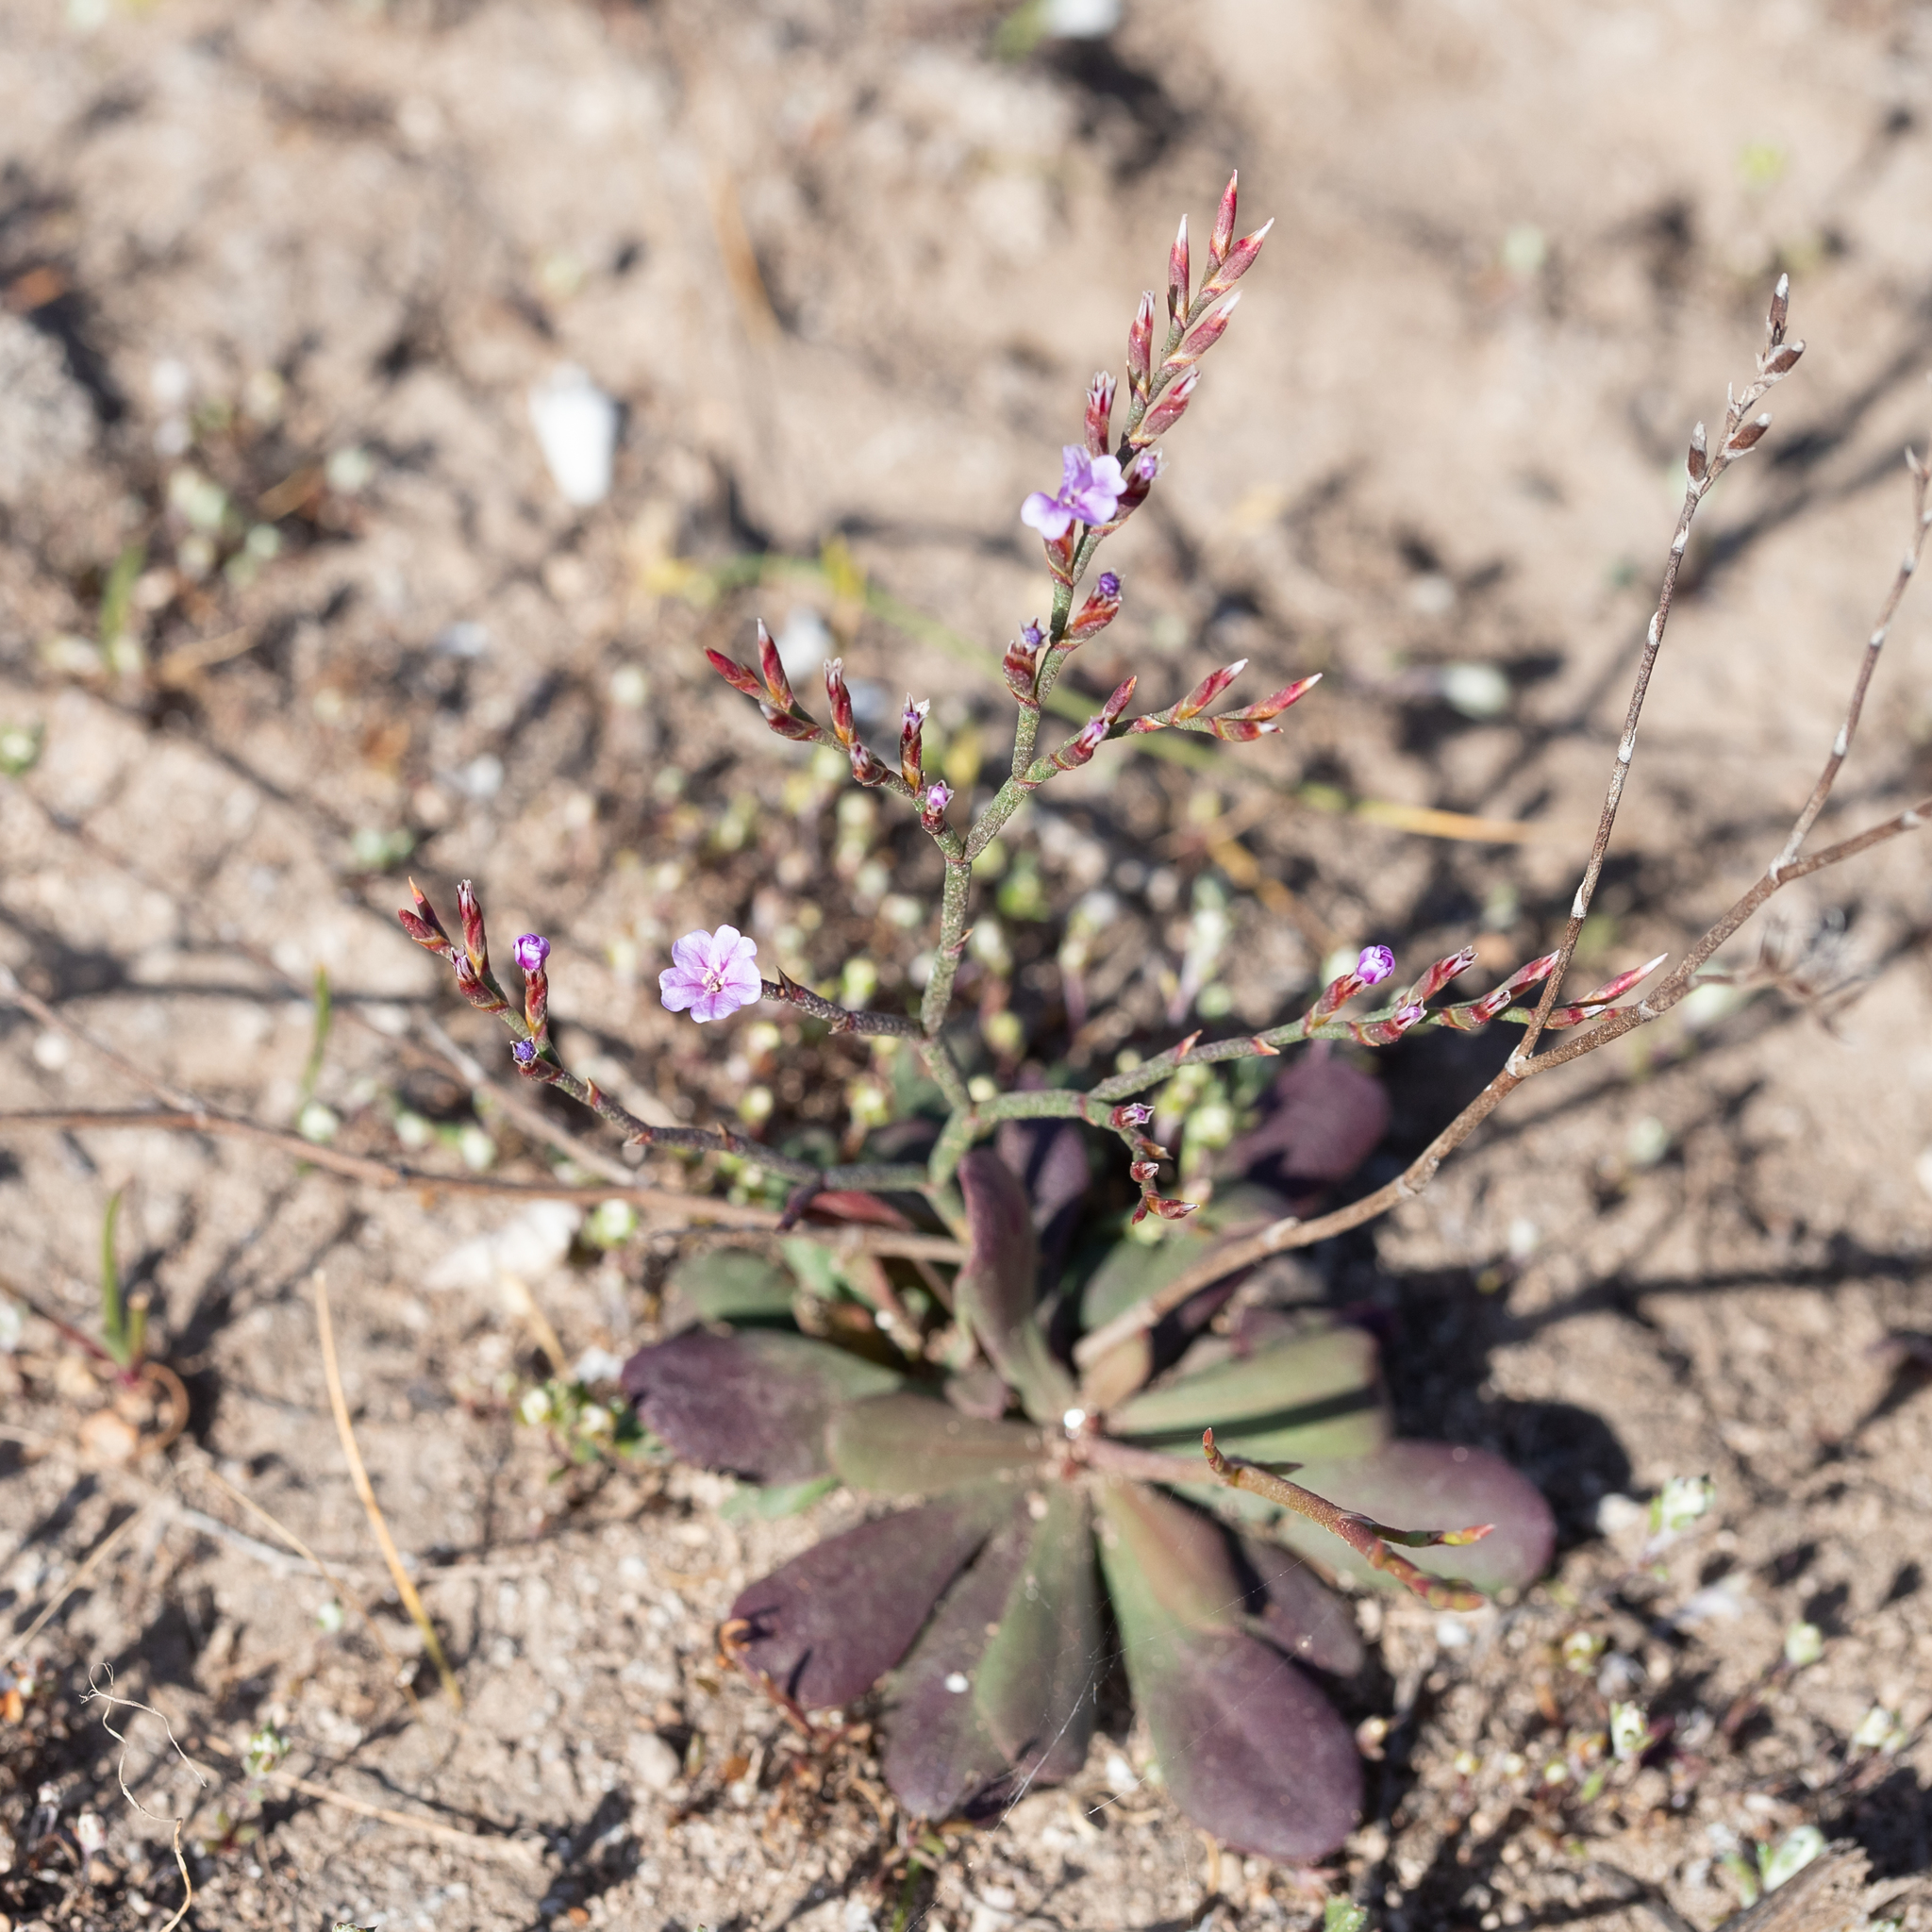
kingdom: Plantae
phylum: Tracheophyta
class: Magnoliopsida
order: Caryophyllales
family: Plumbaginaceae
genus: Limonium
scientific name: Limonium companyonis
